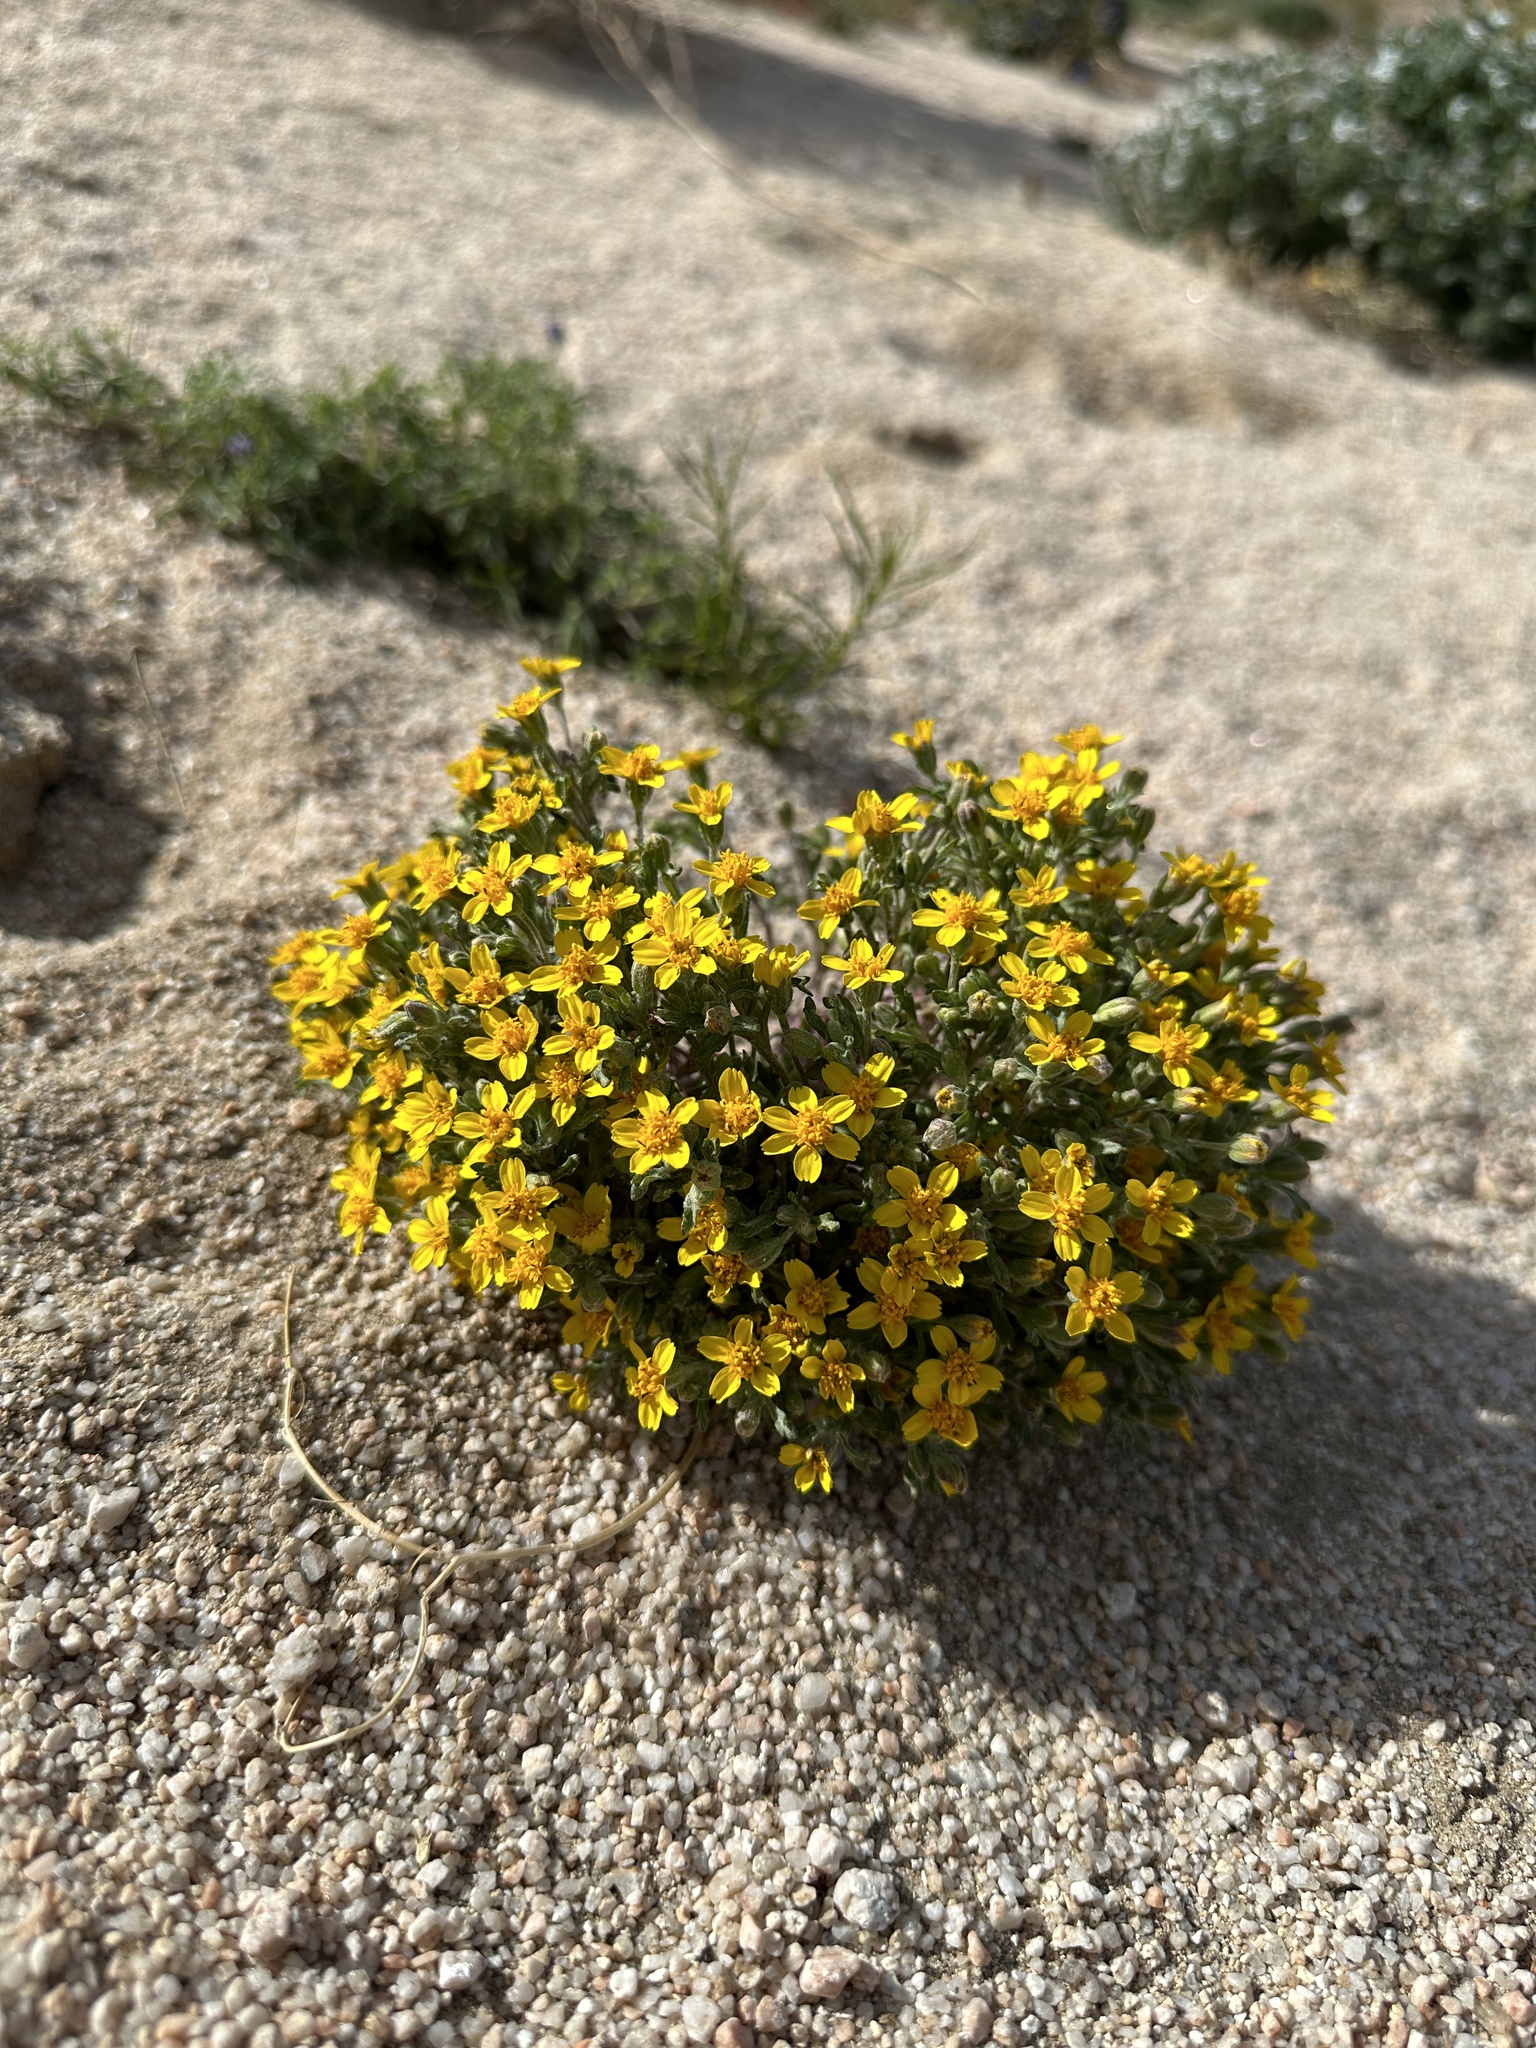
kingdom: Plantae
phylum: Tracheophyta
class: Magnoliopsida
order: Asterales
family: Asteraceae
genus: Syntrichopappus
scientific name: Syntrichopappus fremontii
